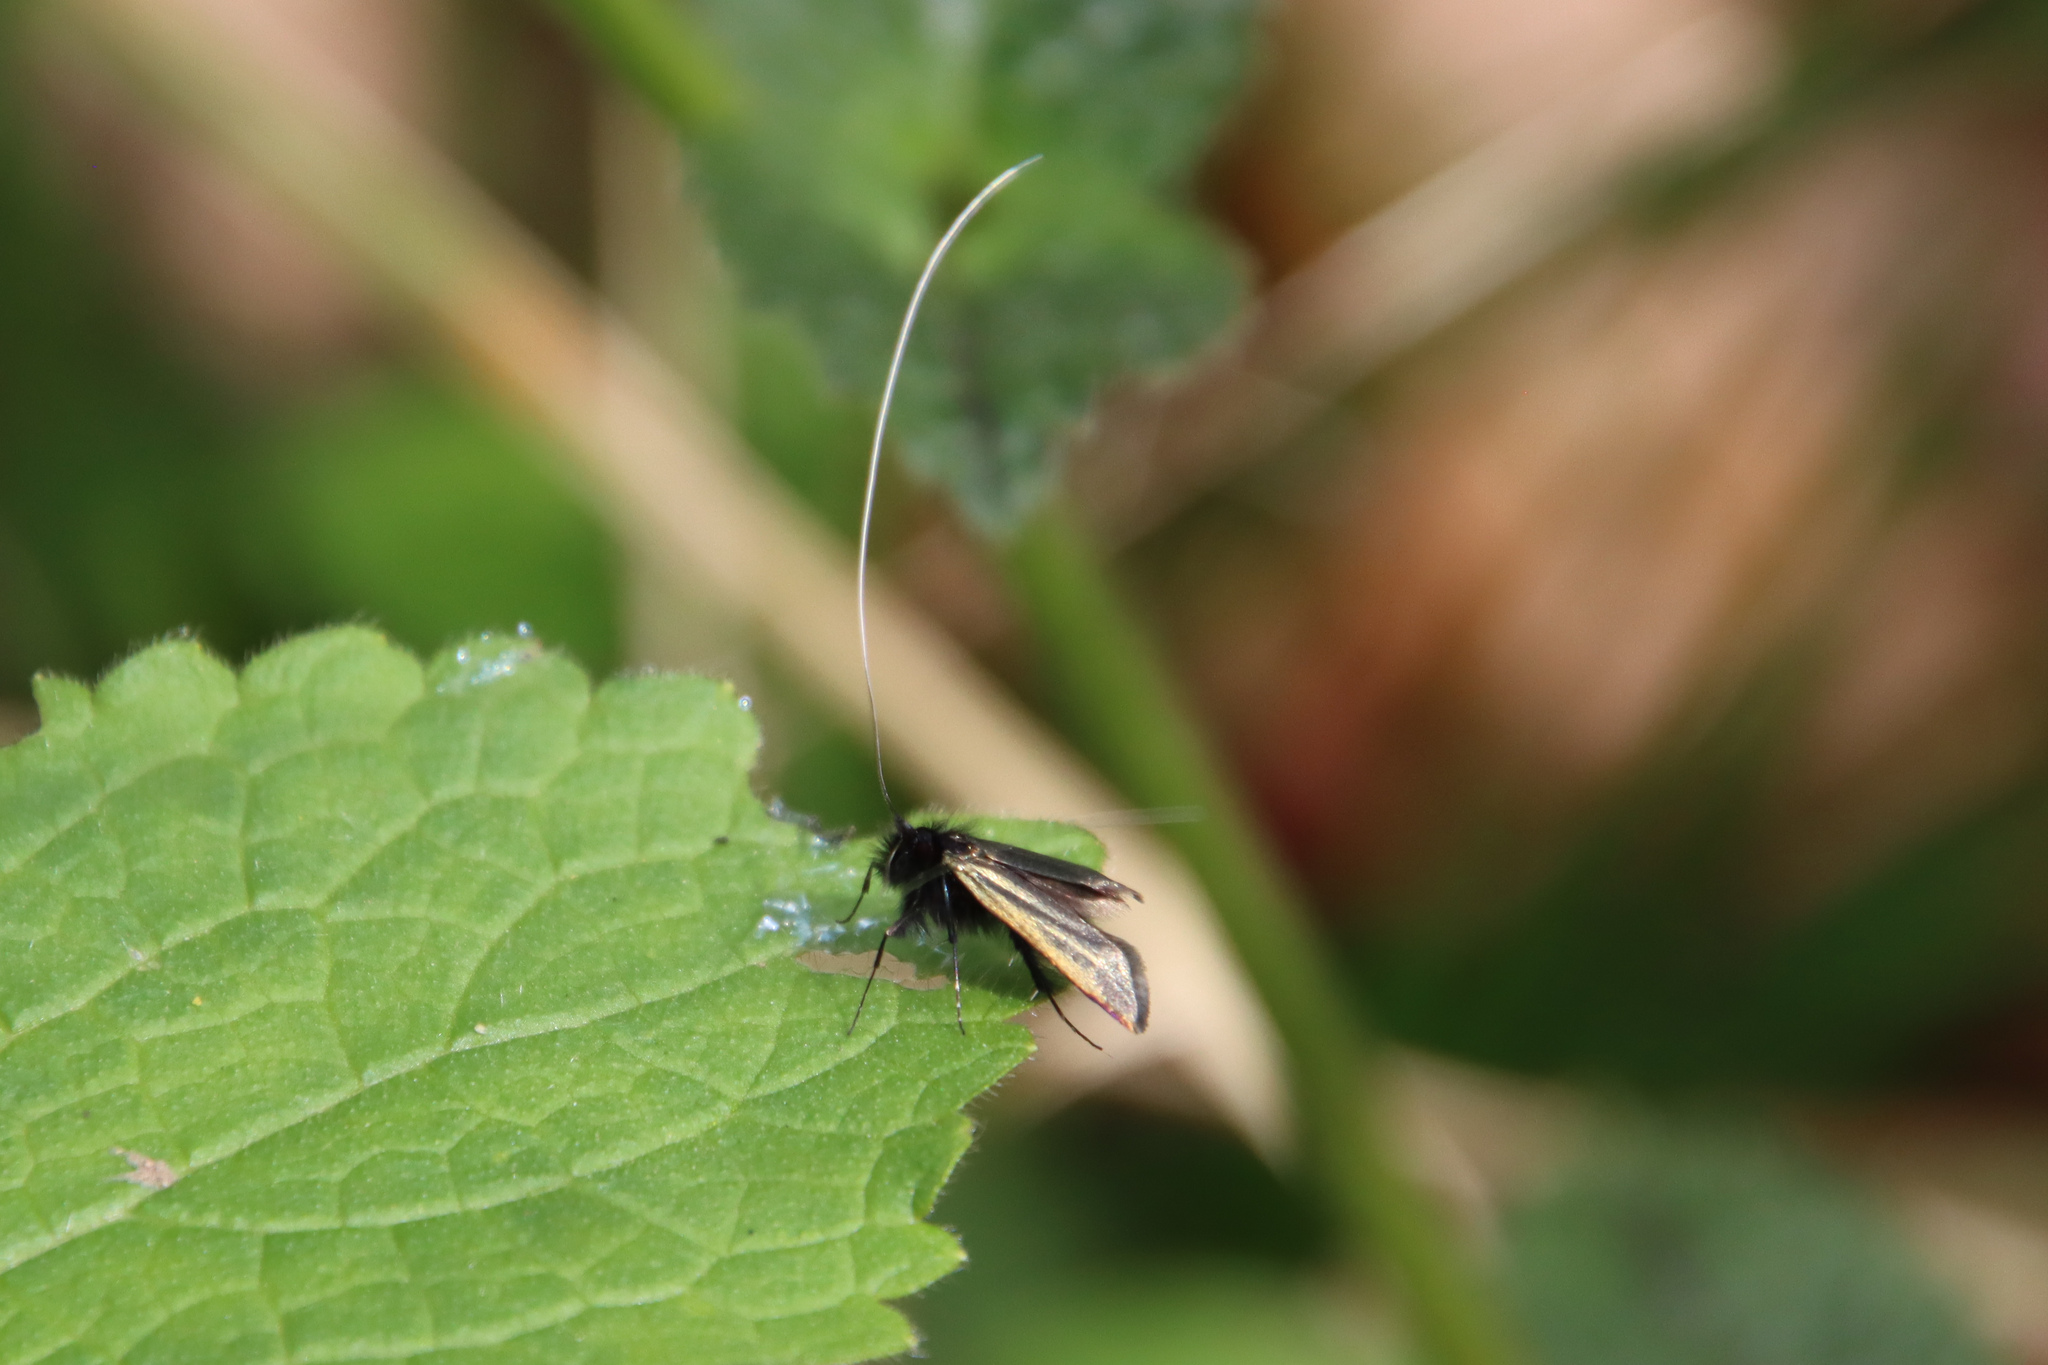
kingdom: Animalia
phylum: Arthropoda
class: Insecta
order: Lepidoptera
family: Adelidae
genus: Adela
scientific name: Adela viridella
